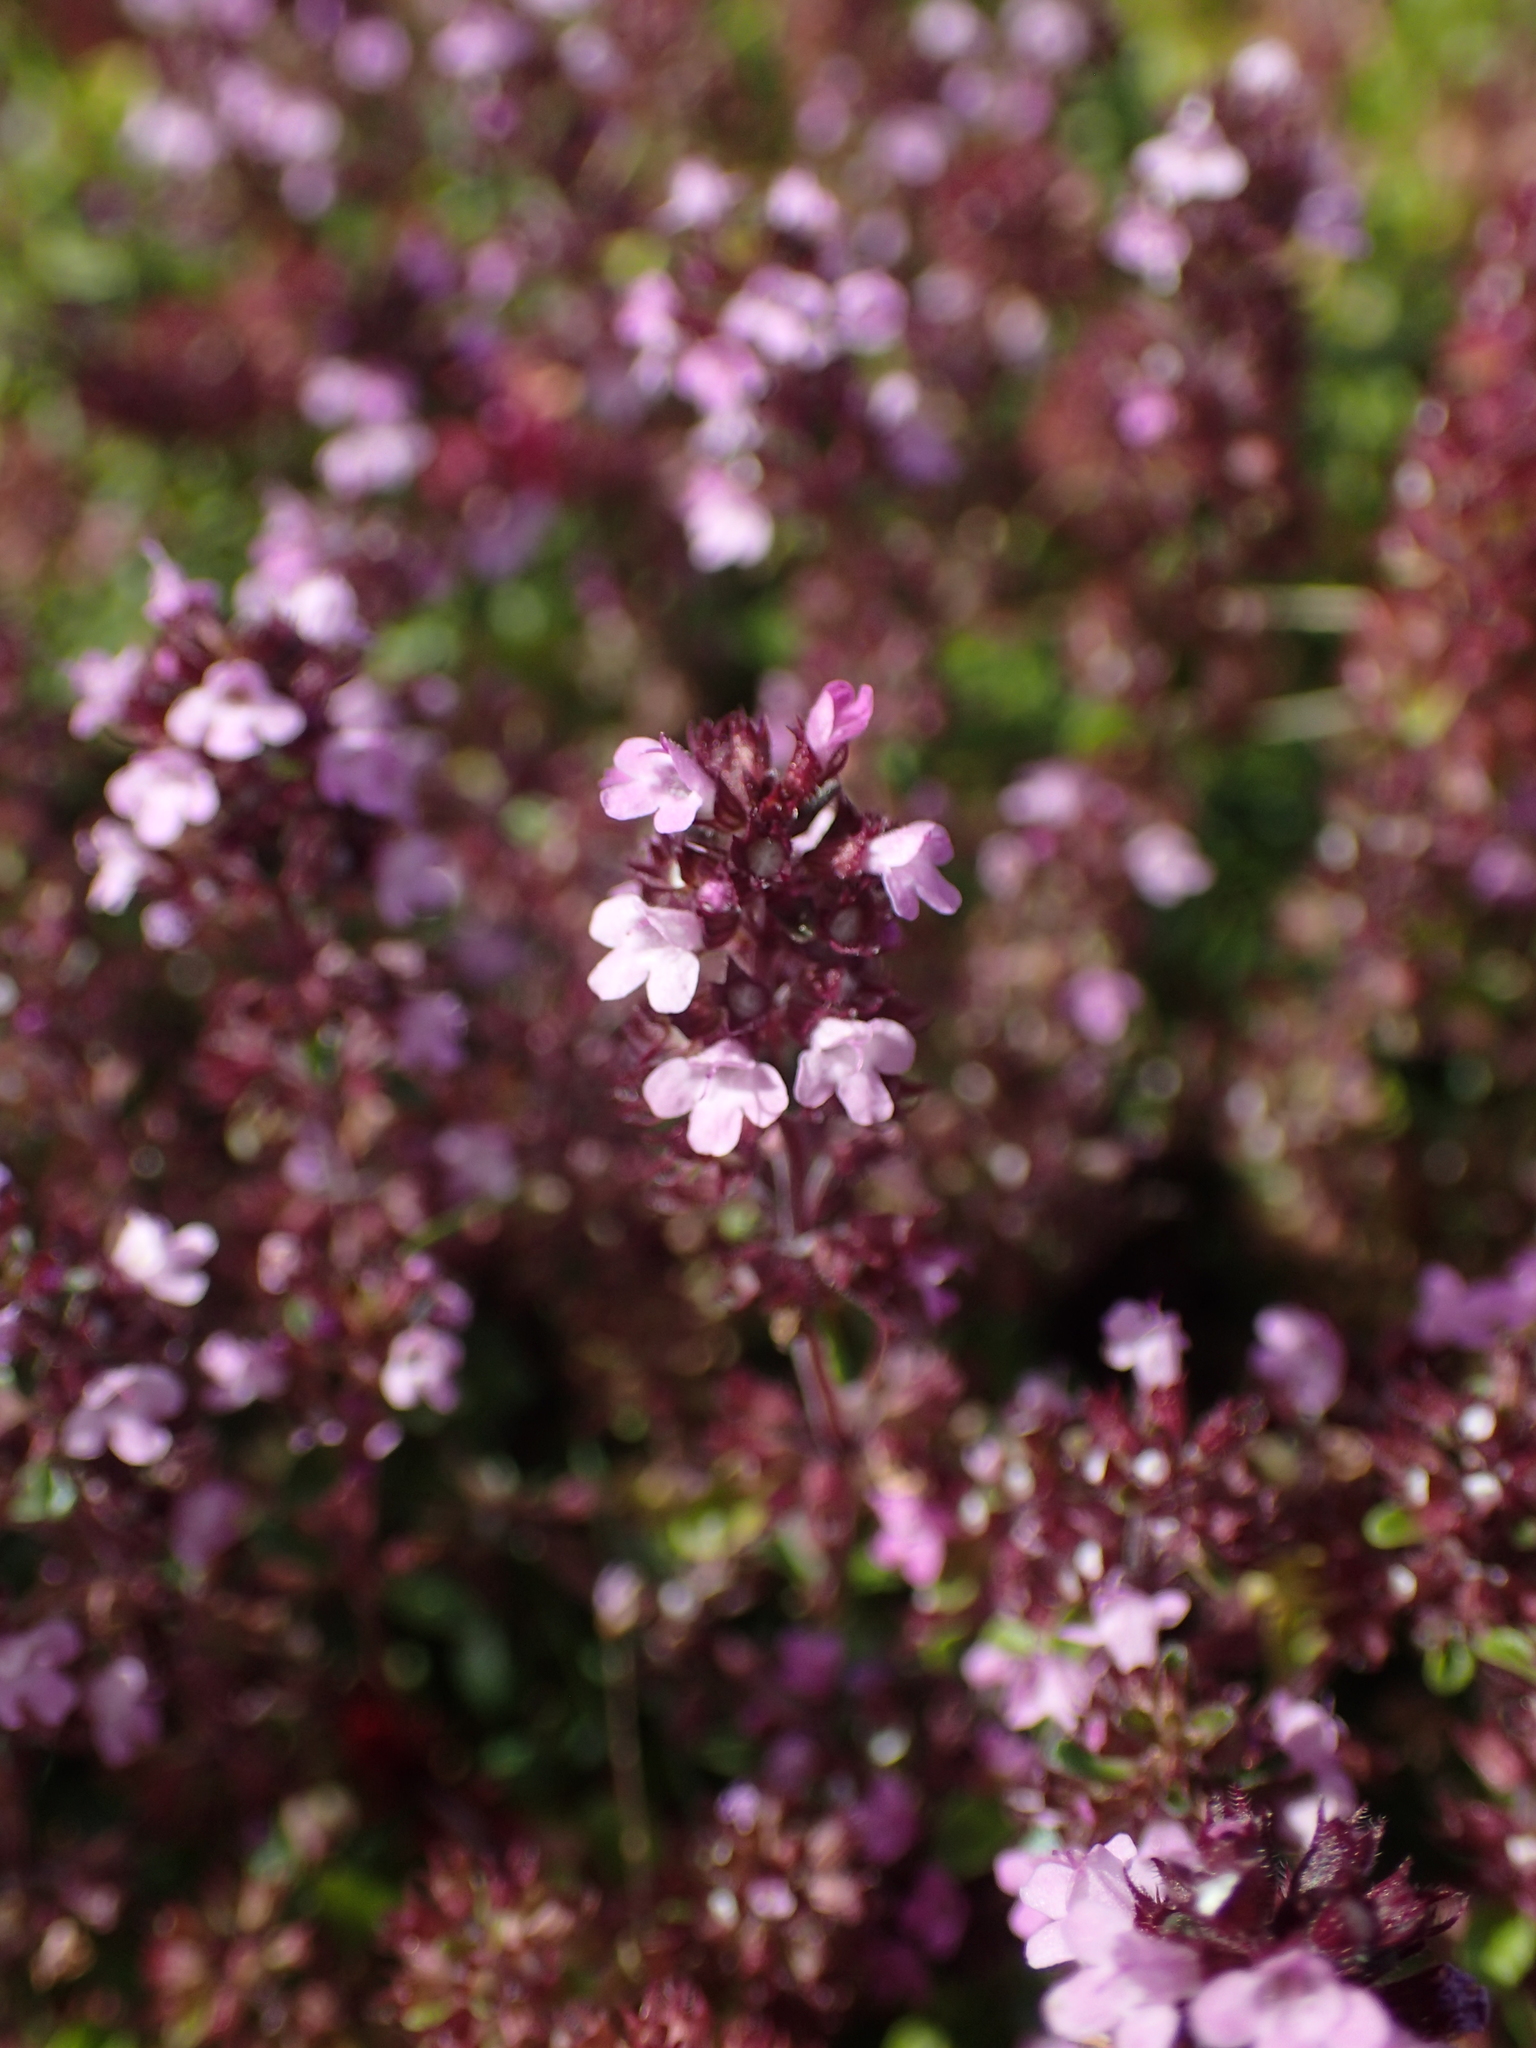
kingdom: Plantae
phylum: Tracheophyta
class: Magnoliopsida
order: Lamiales
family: Lamiaceae
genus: Thymus
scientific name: Thymus pulegioides
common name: Large thyme
